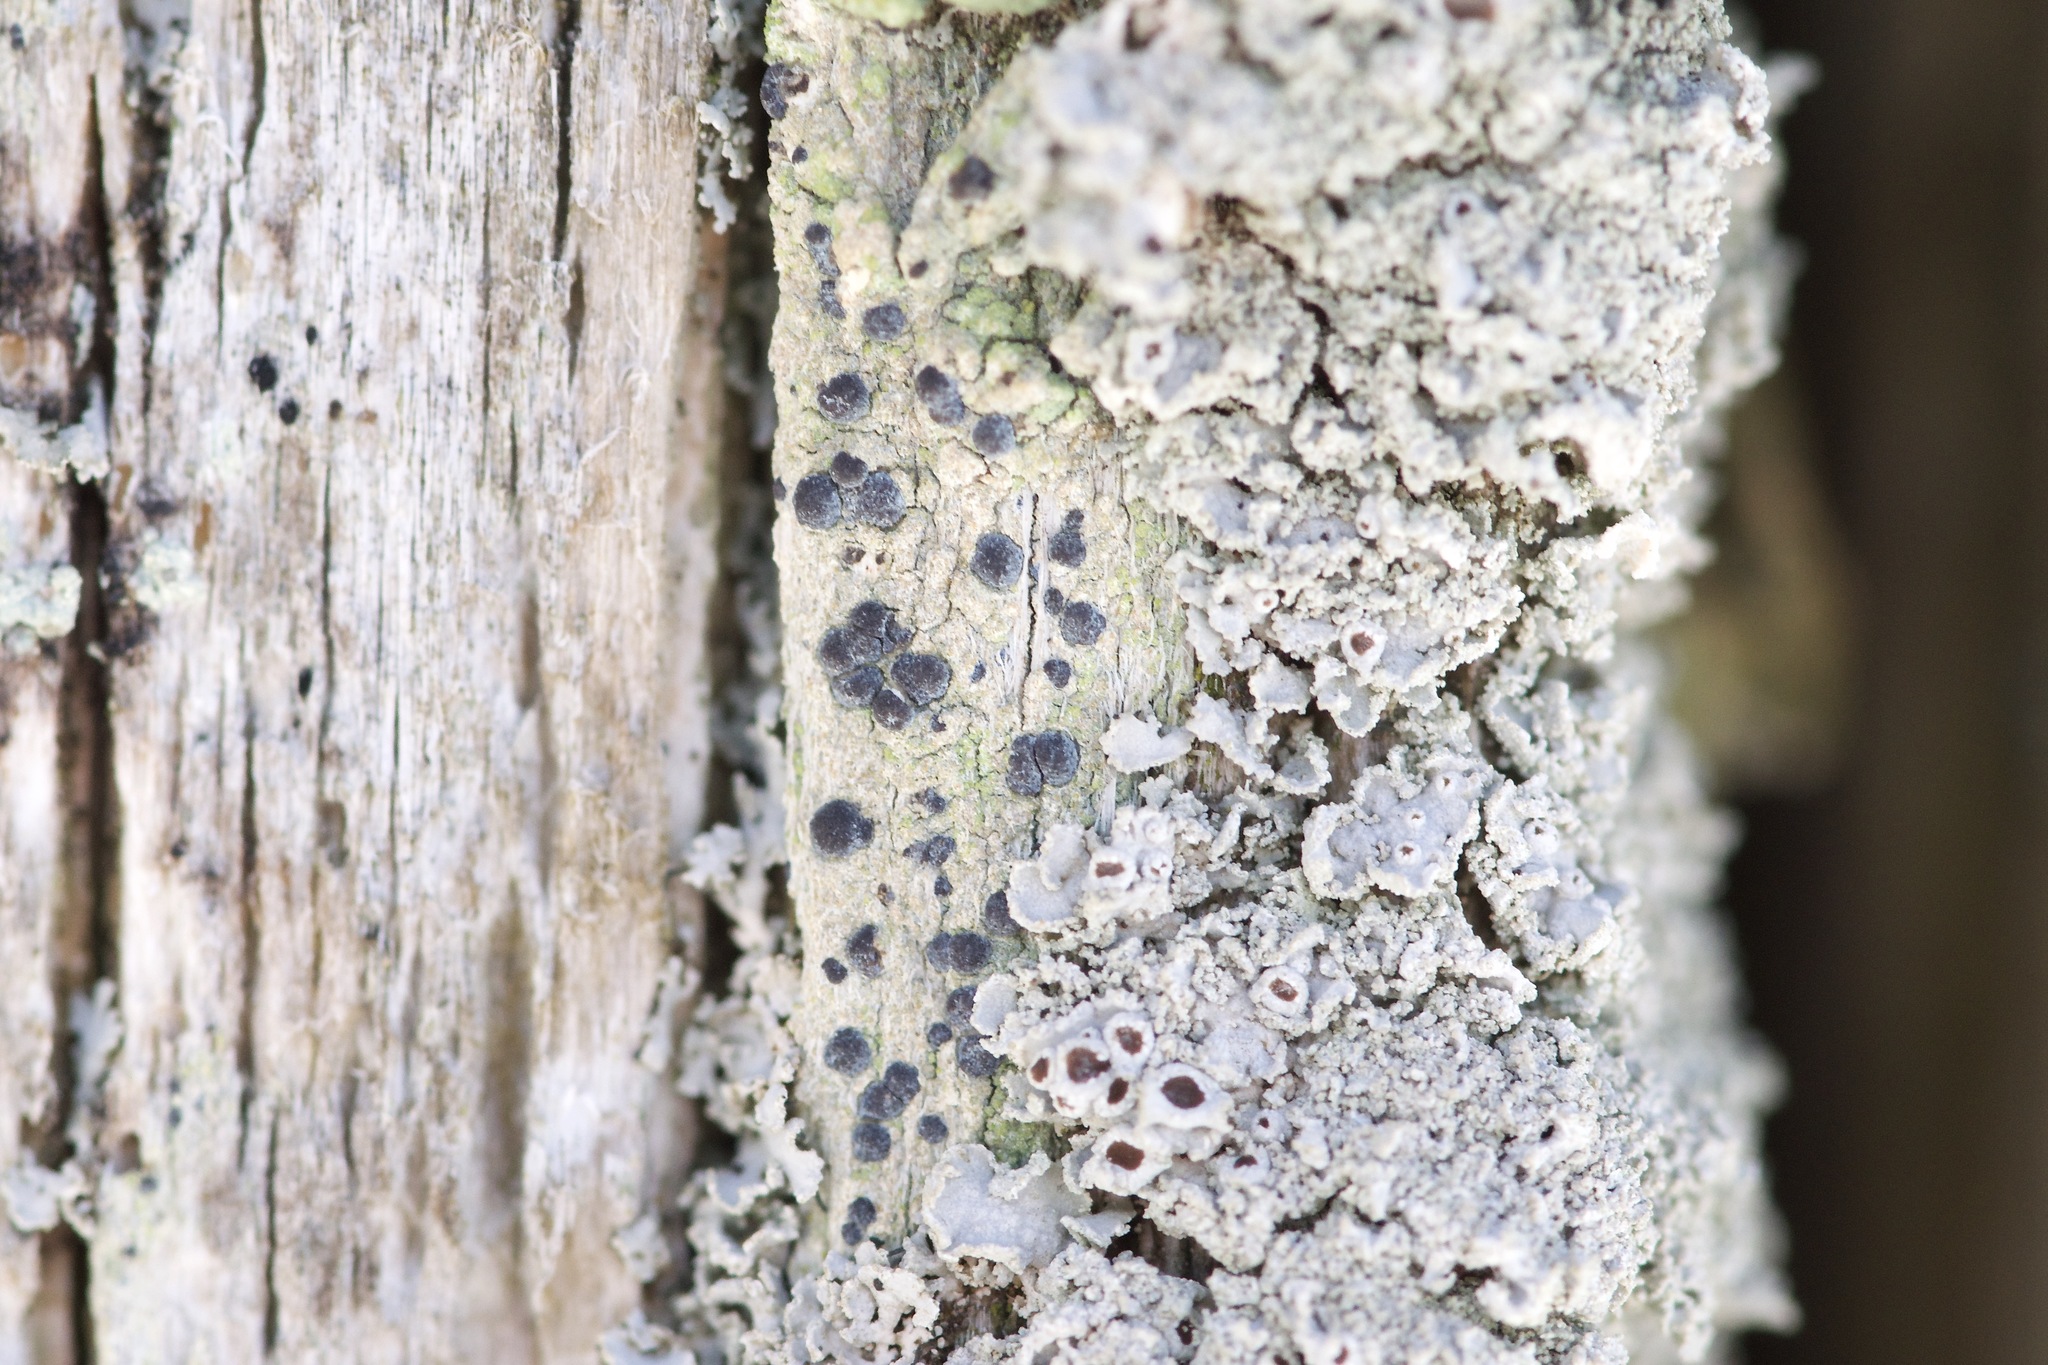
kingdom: Fungi
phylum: Ascomycota
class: Arthoniomycetes
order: Arthoniales
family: Chrysotrichaceae
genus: Chrysothrix
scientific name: Chrysothrix caesia
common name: Frosted comma lichen
